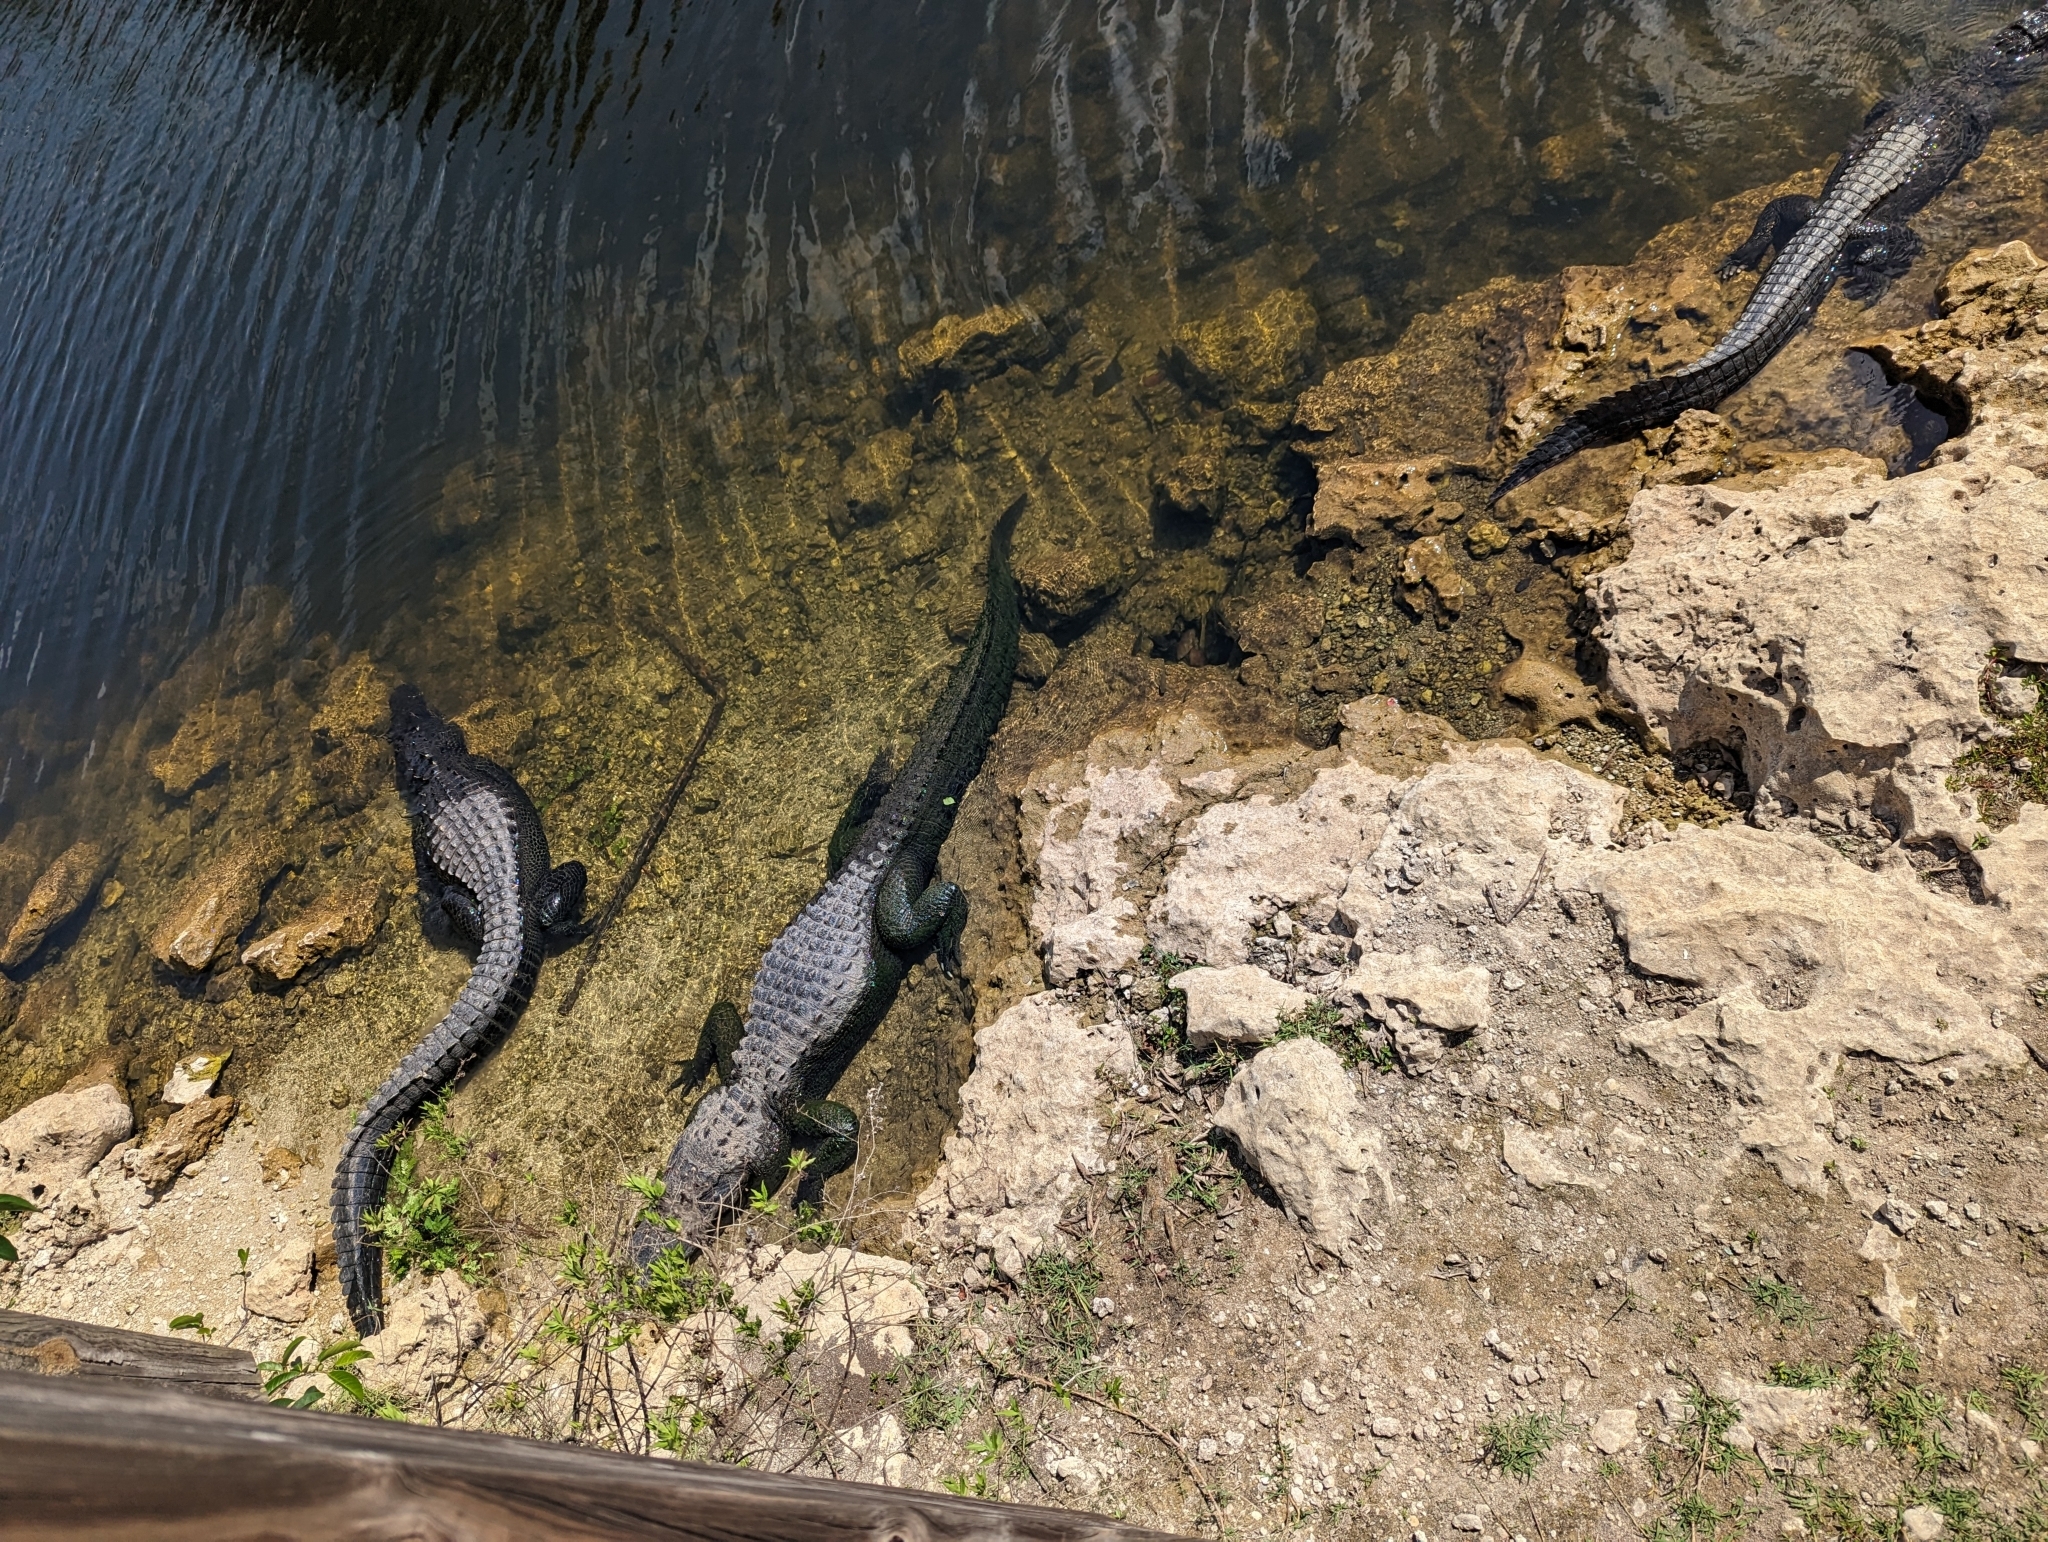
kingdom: Animalia
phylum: Chordata
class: Crocodylia
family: Alligatoridae
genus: Alligator
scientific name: Alligator mississippiensis
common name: American alligator
